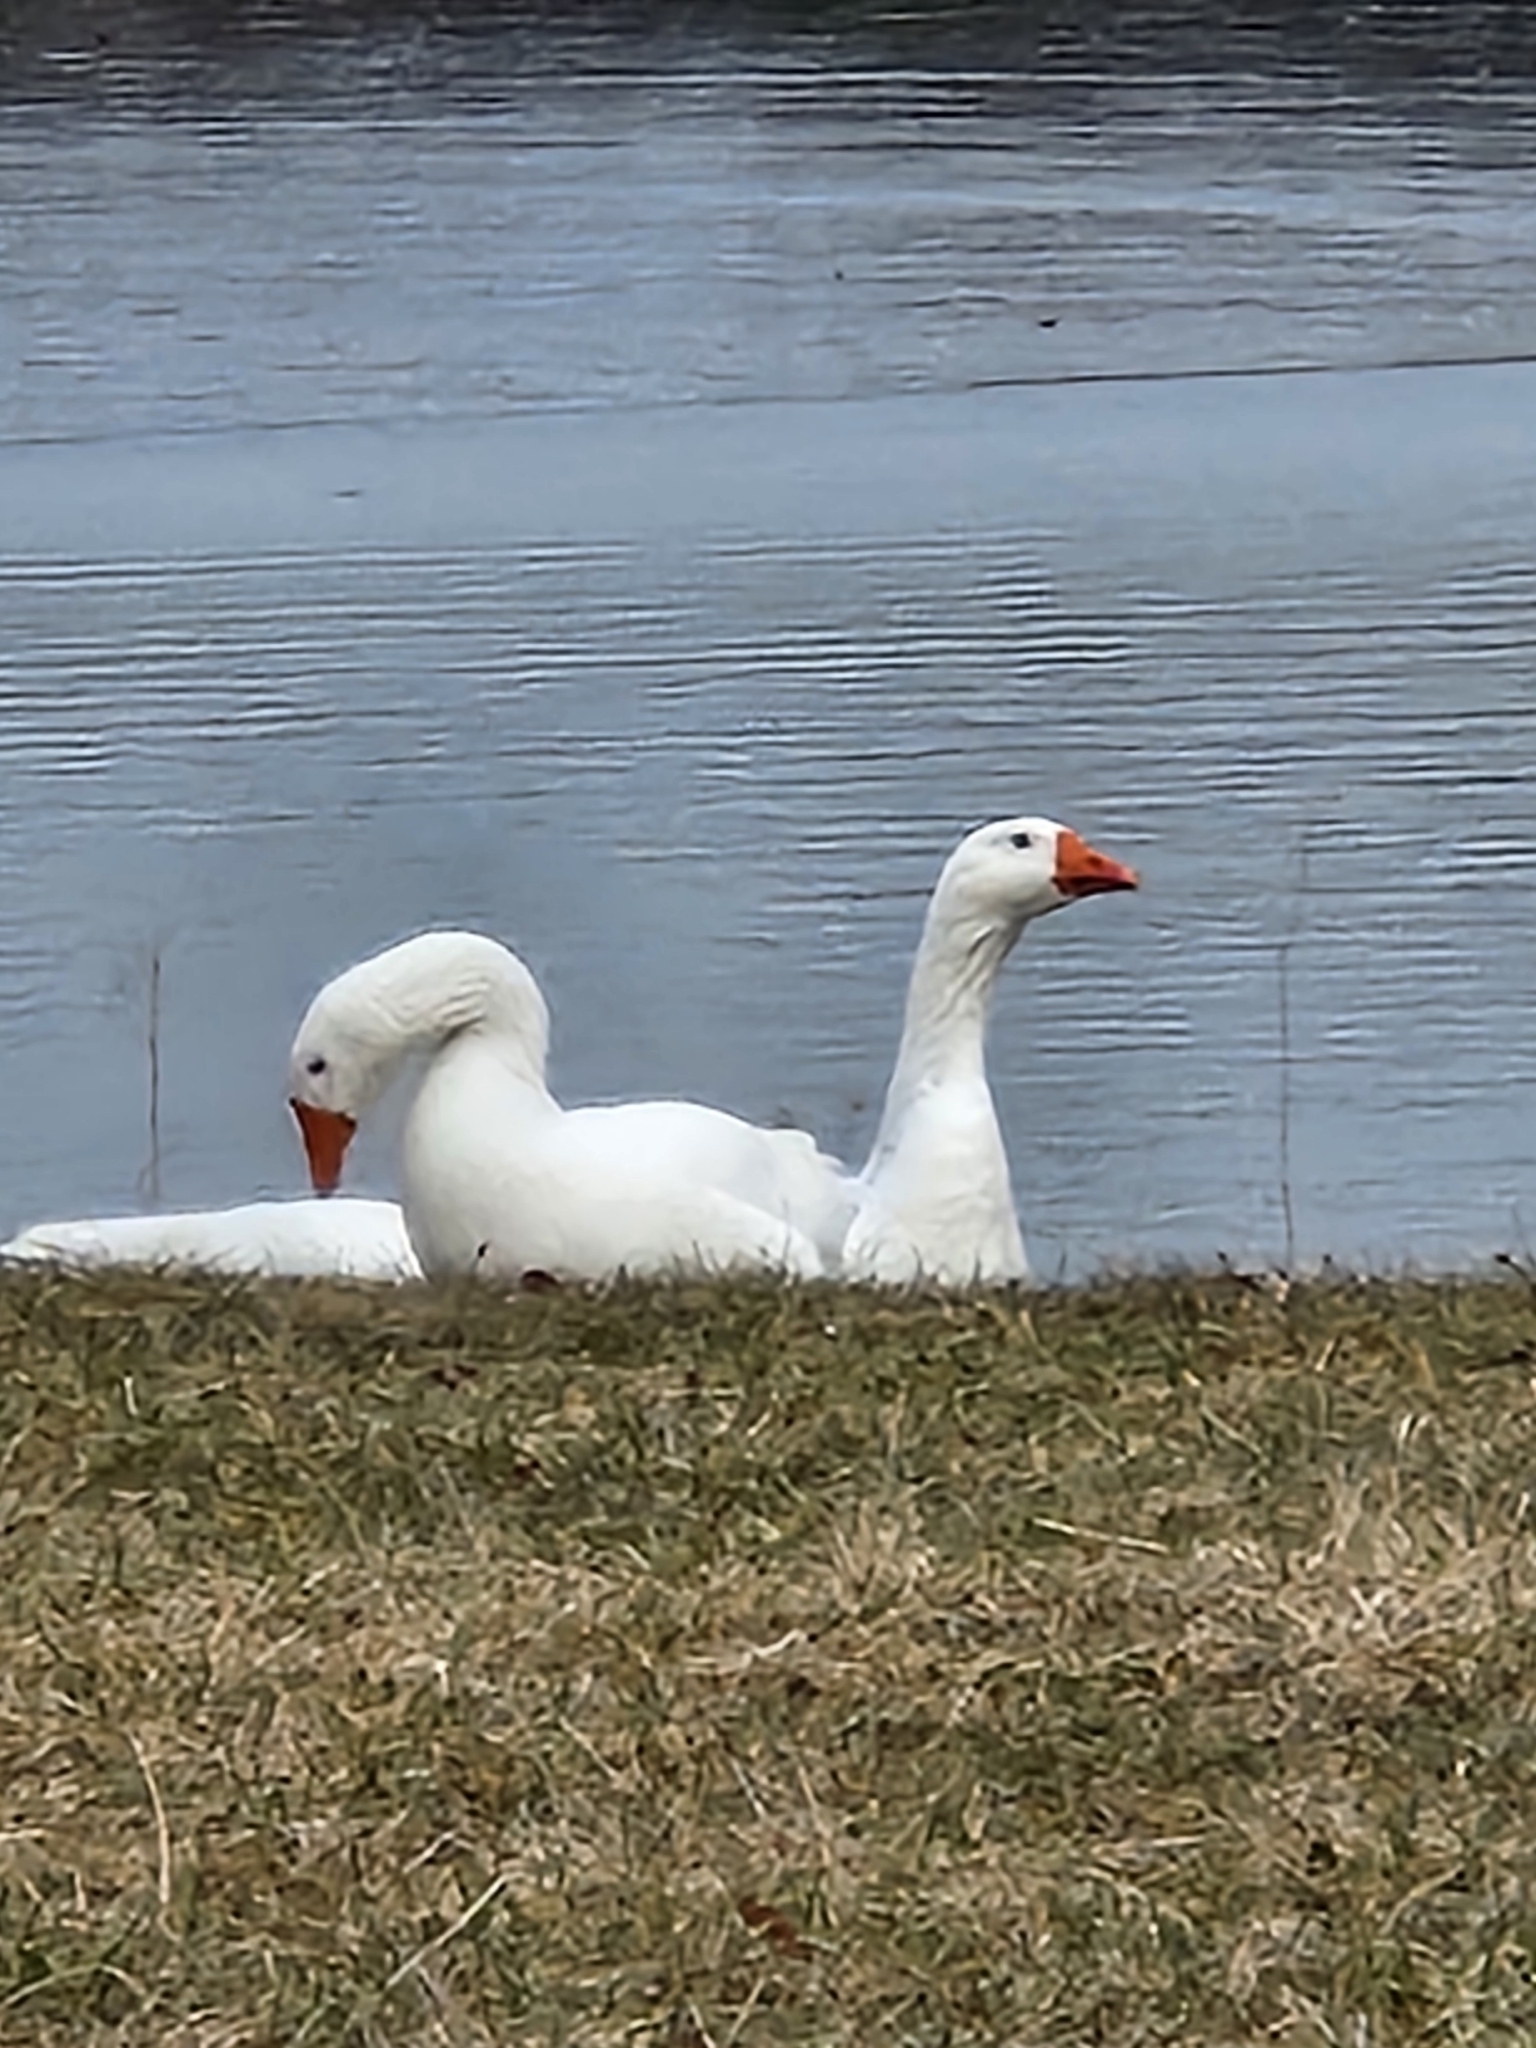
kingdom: Animalia
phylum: Chordata
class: Aves
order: Anseriformes
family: Anatidae
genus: Anser
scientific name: Anser anser
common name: Greylag goose
